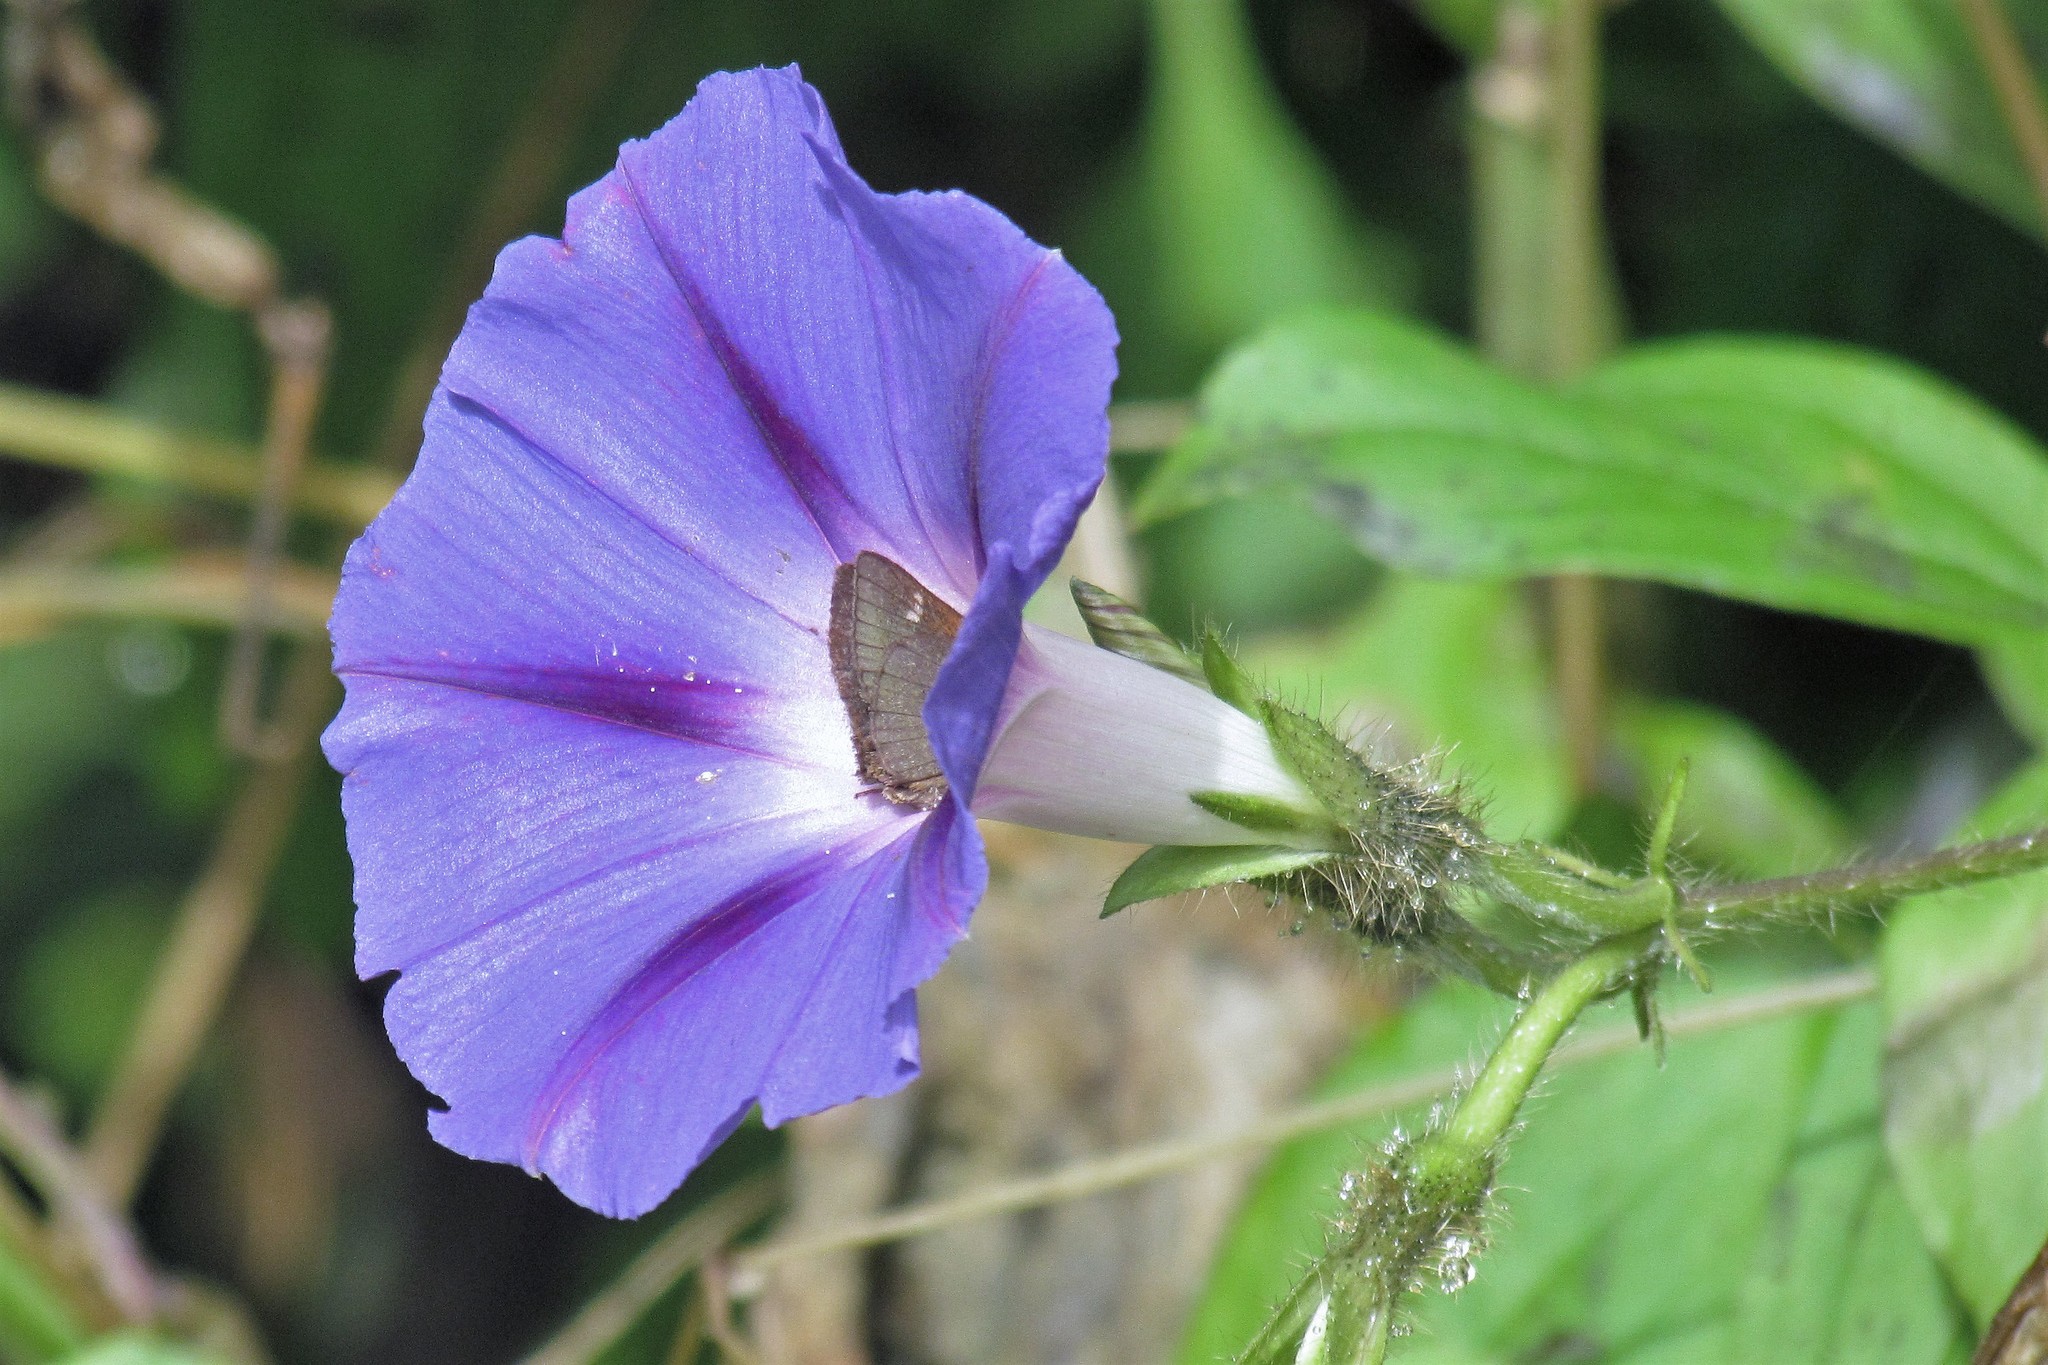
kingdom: Plantae
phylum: Tracheophyta
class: Magnoliopsida
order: Solanales
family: Convolvulaceae
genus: Ipomoea
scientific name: Ipomoea purpurea
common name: Common morning-glory
